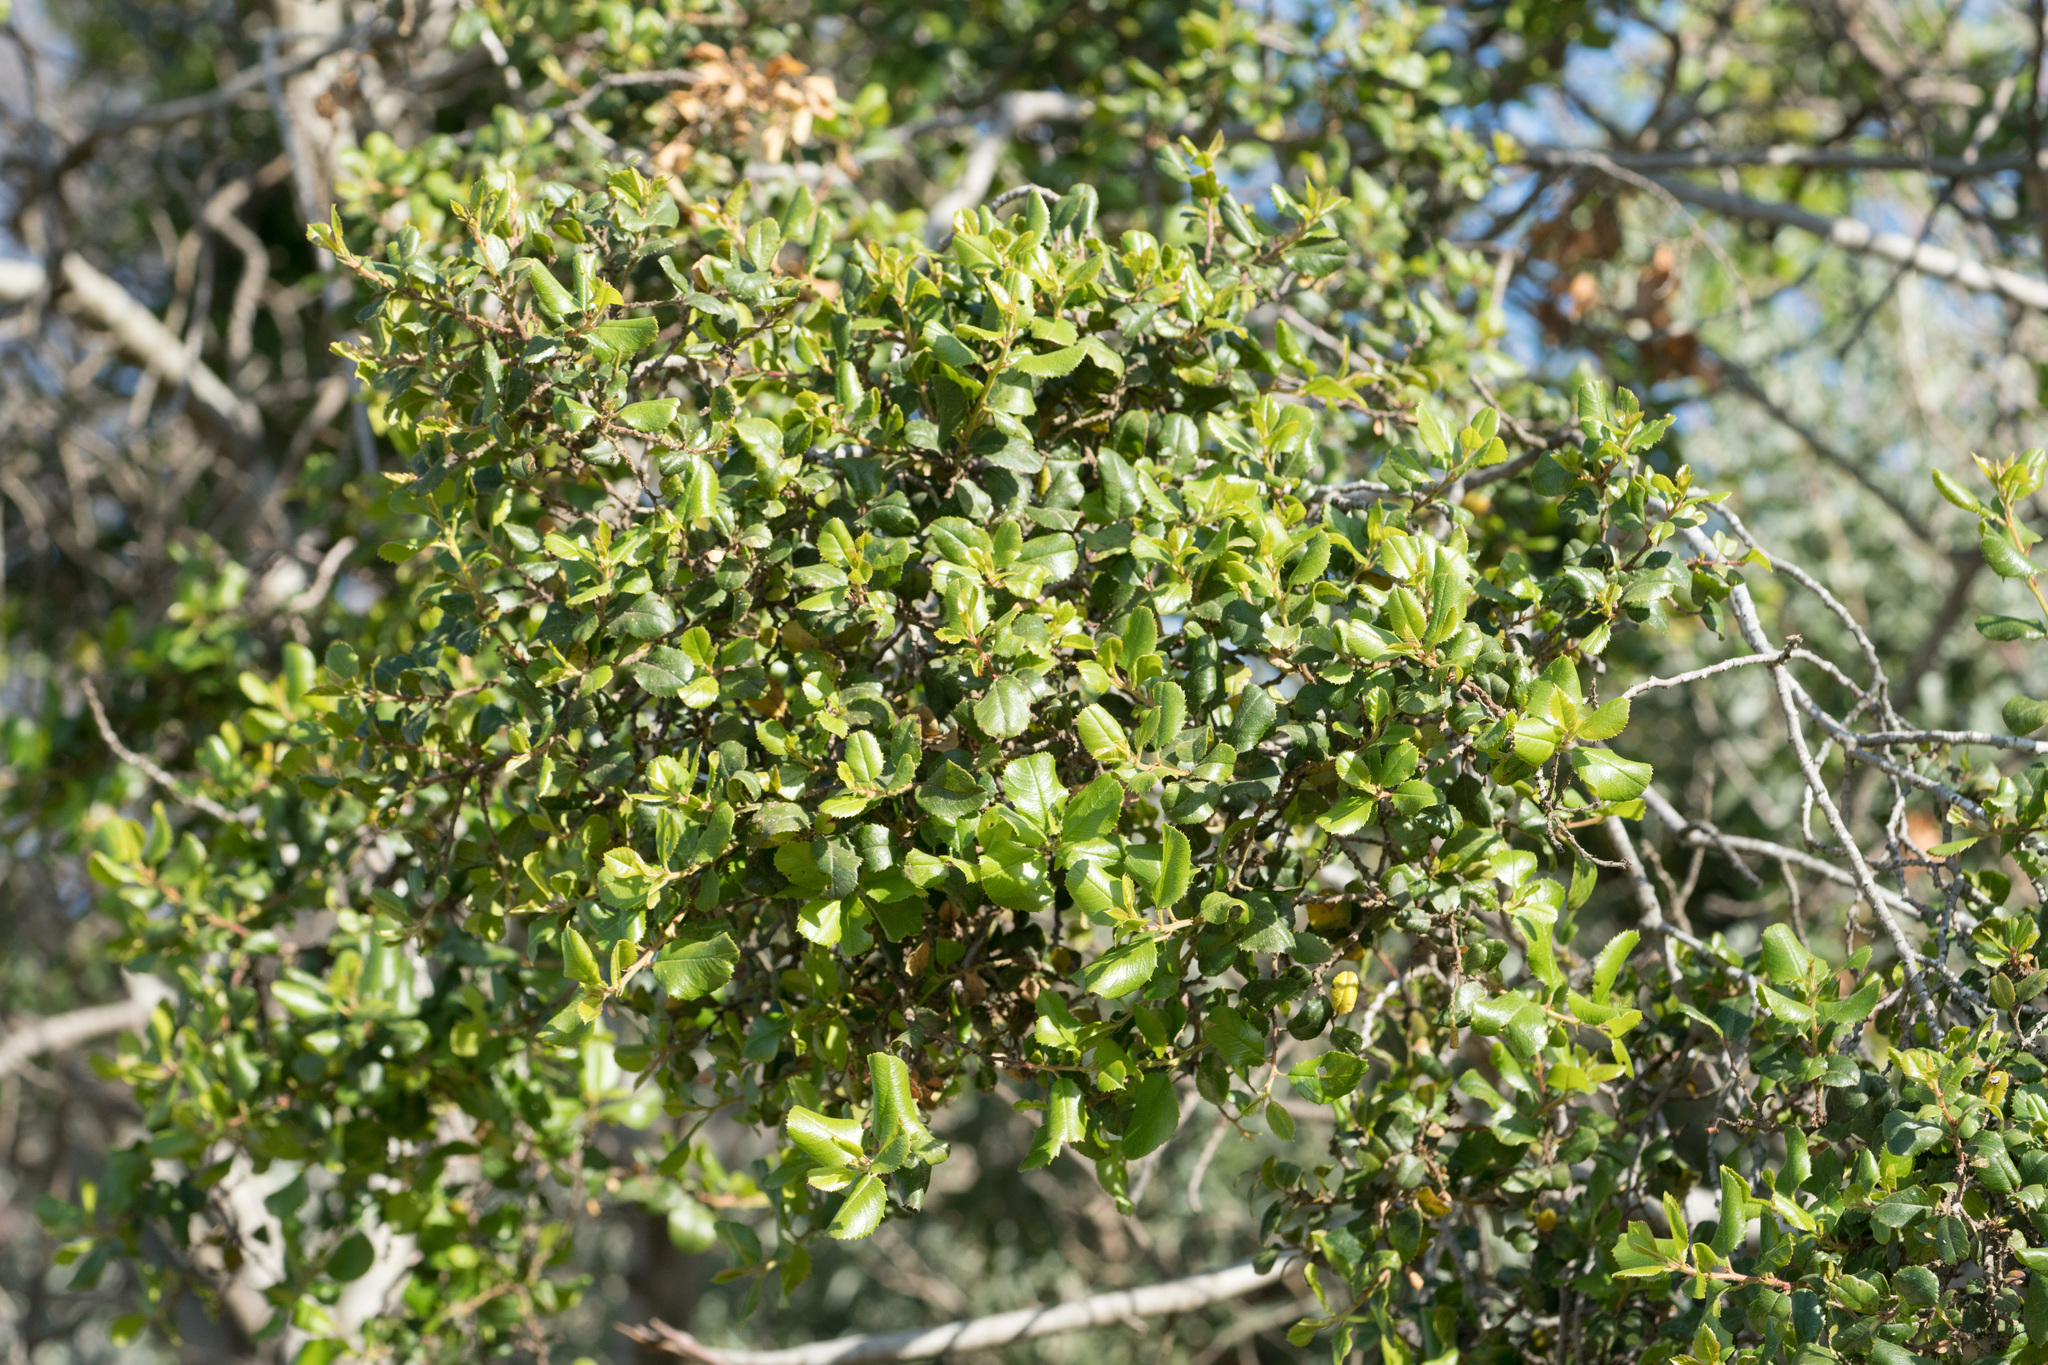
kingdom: Plantae
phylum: Tracheophyta
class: Magnoliopsida
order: Rosales
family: Rhamnaceae
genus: Endotropis
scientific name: Endotropis crocea
